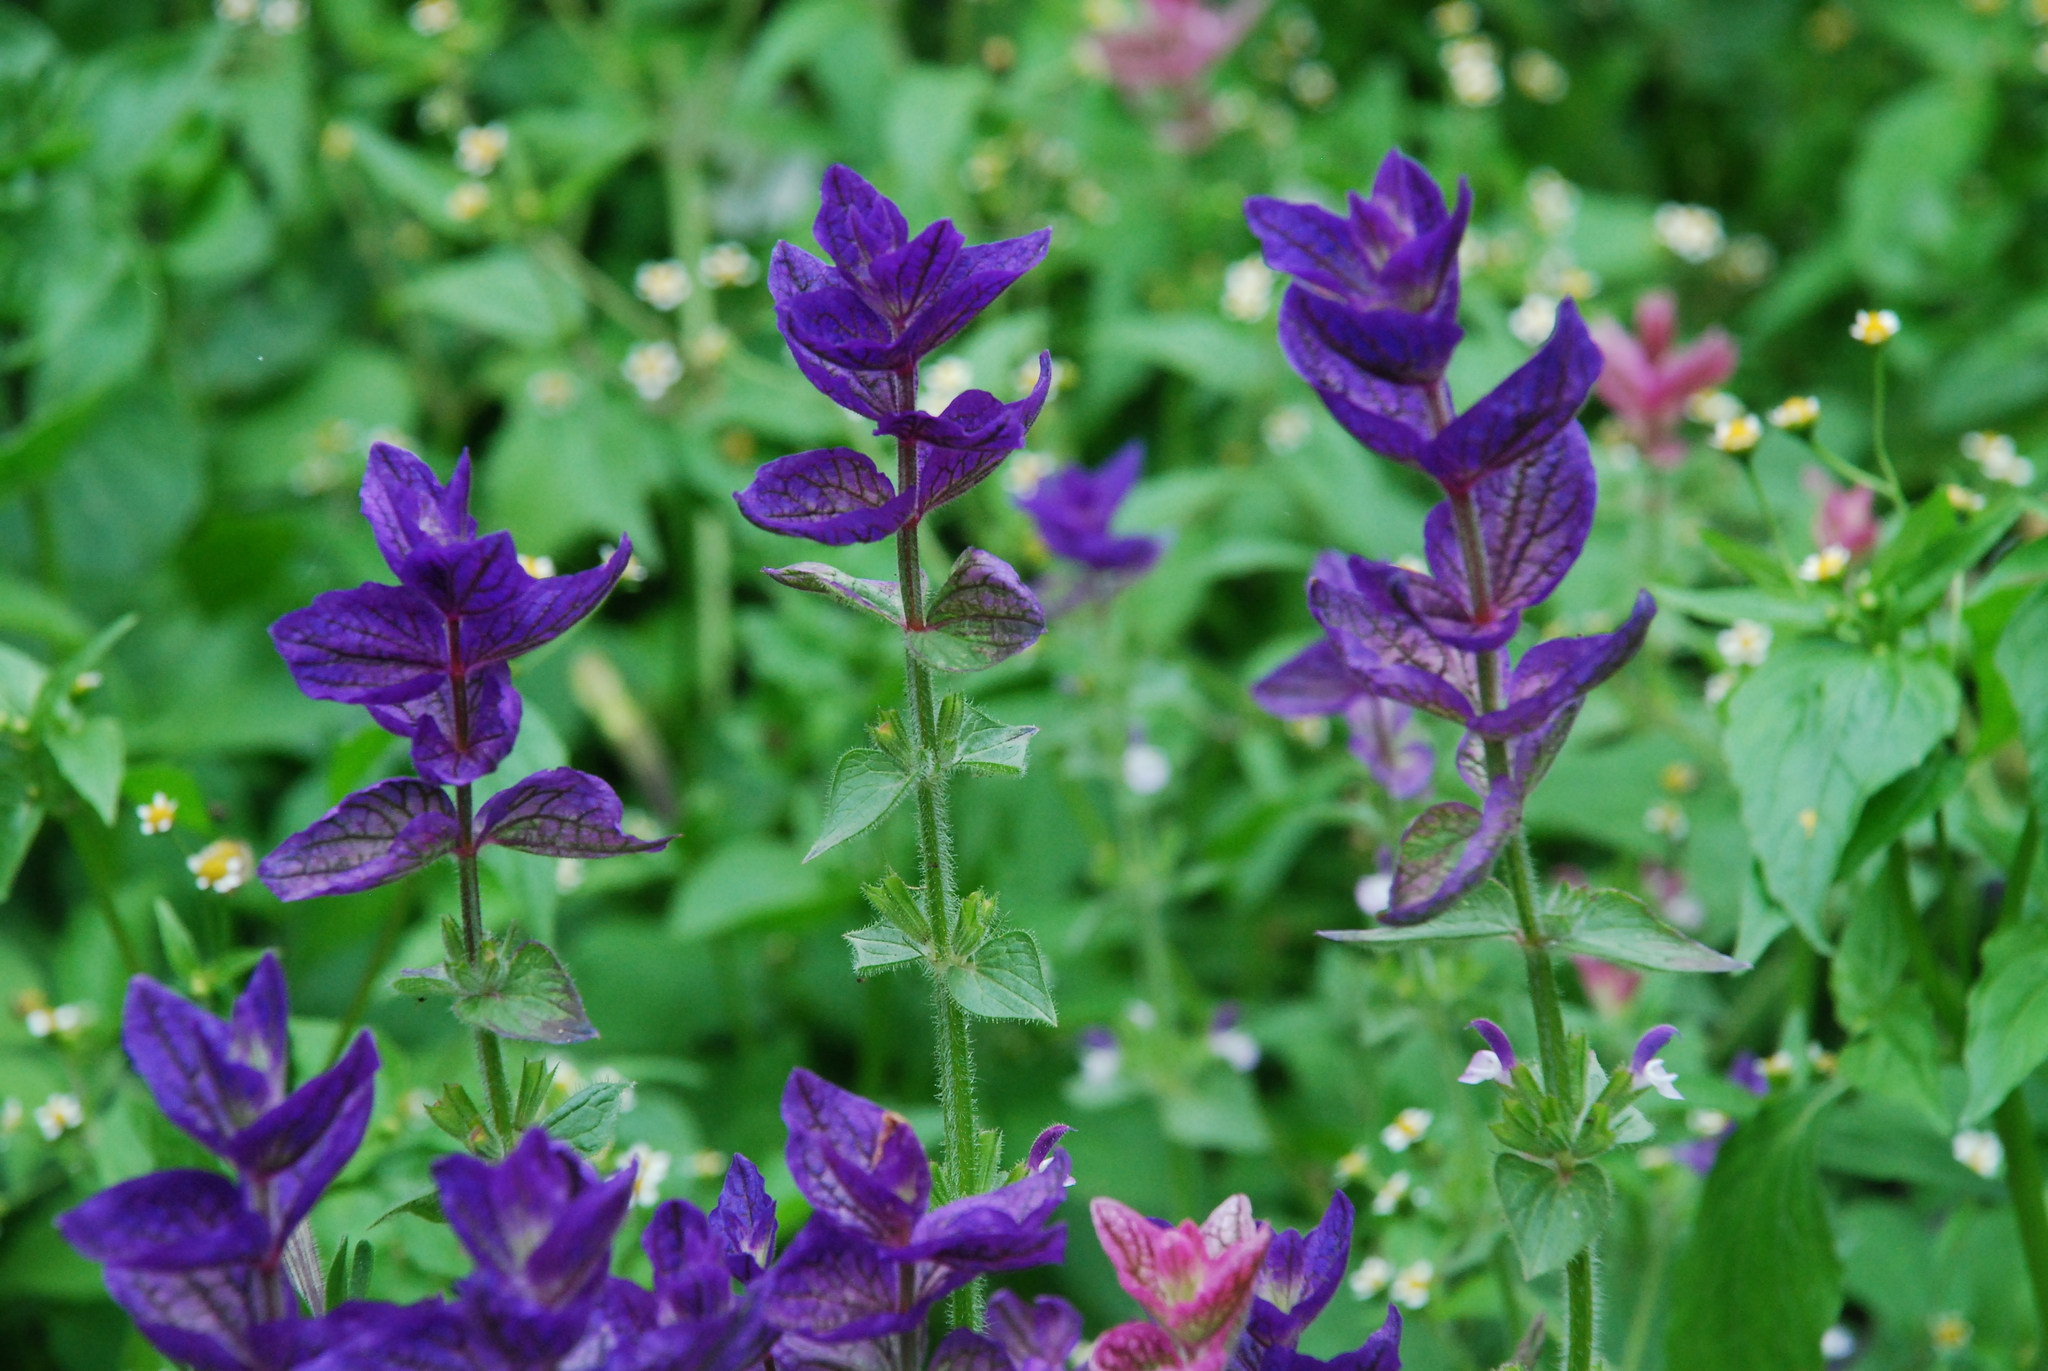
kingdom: Plantae
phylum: Tracheophyta
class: Magnoliopsida
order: Lamiales
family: Lamiaceae
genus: Salvia
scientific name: Salvia viridis
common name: Annual clary
